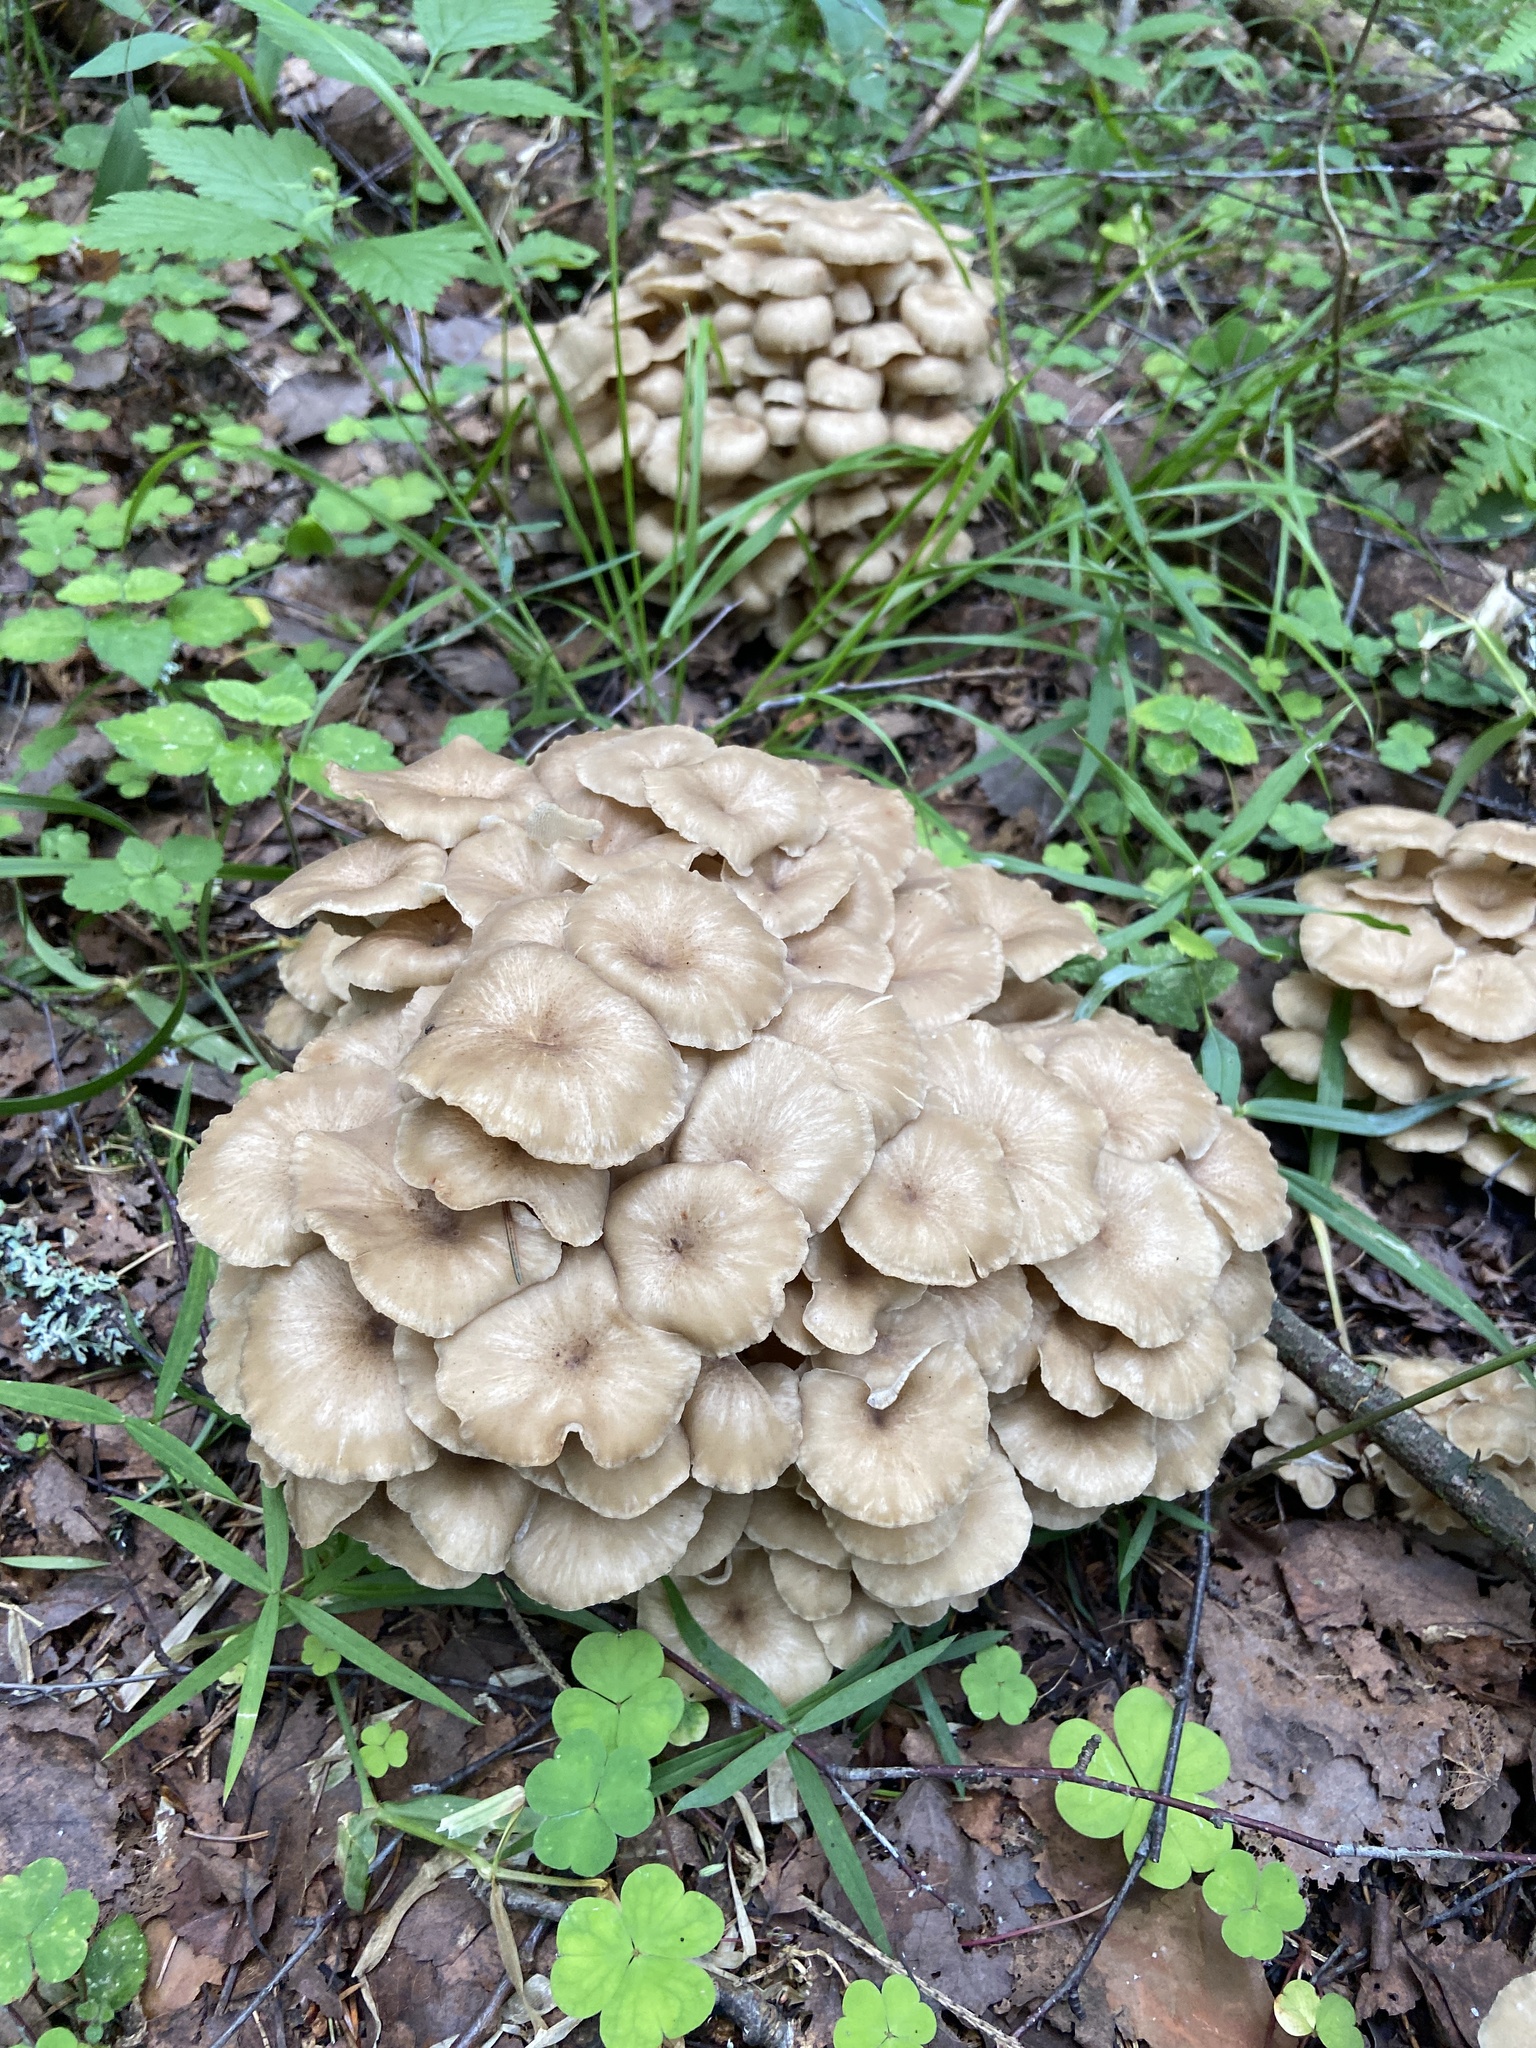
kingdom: Fungi
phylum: Basidiomycota
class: Agaricomycetes
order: Polyporales
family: Polyporaceae
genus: Polyporus
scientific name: Polyporus umbellatus
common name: Umbrella polypore
